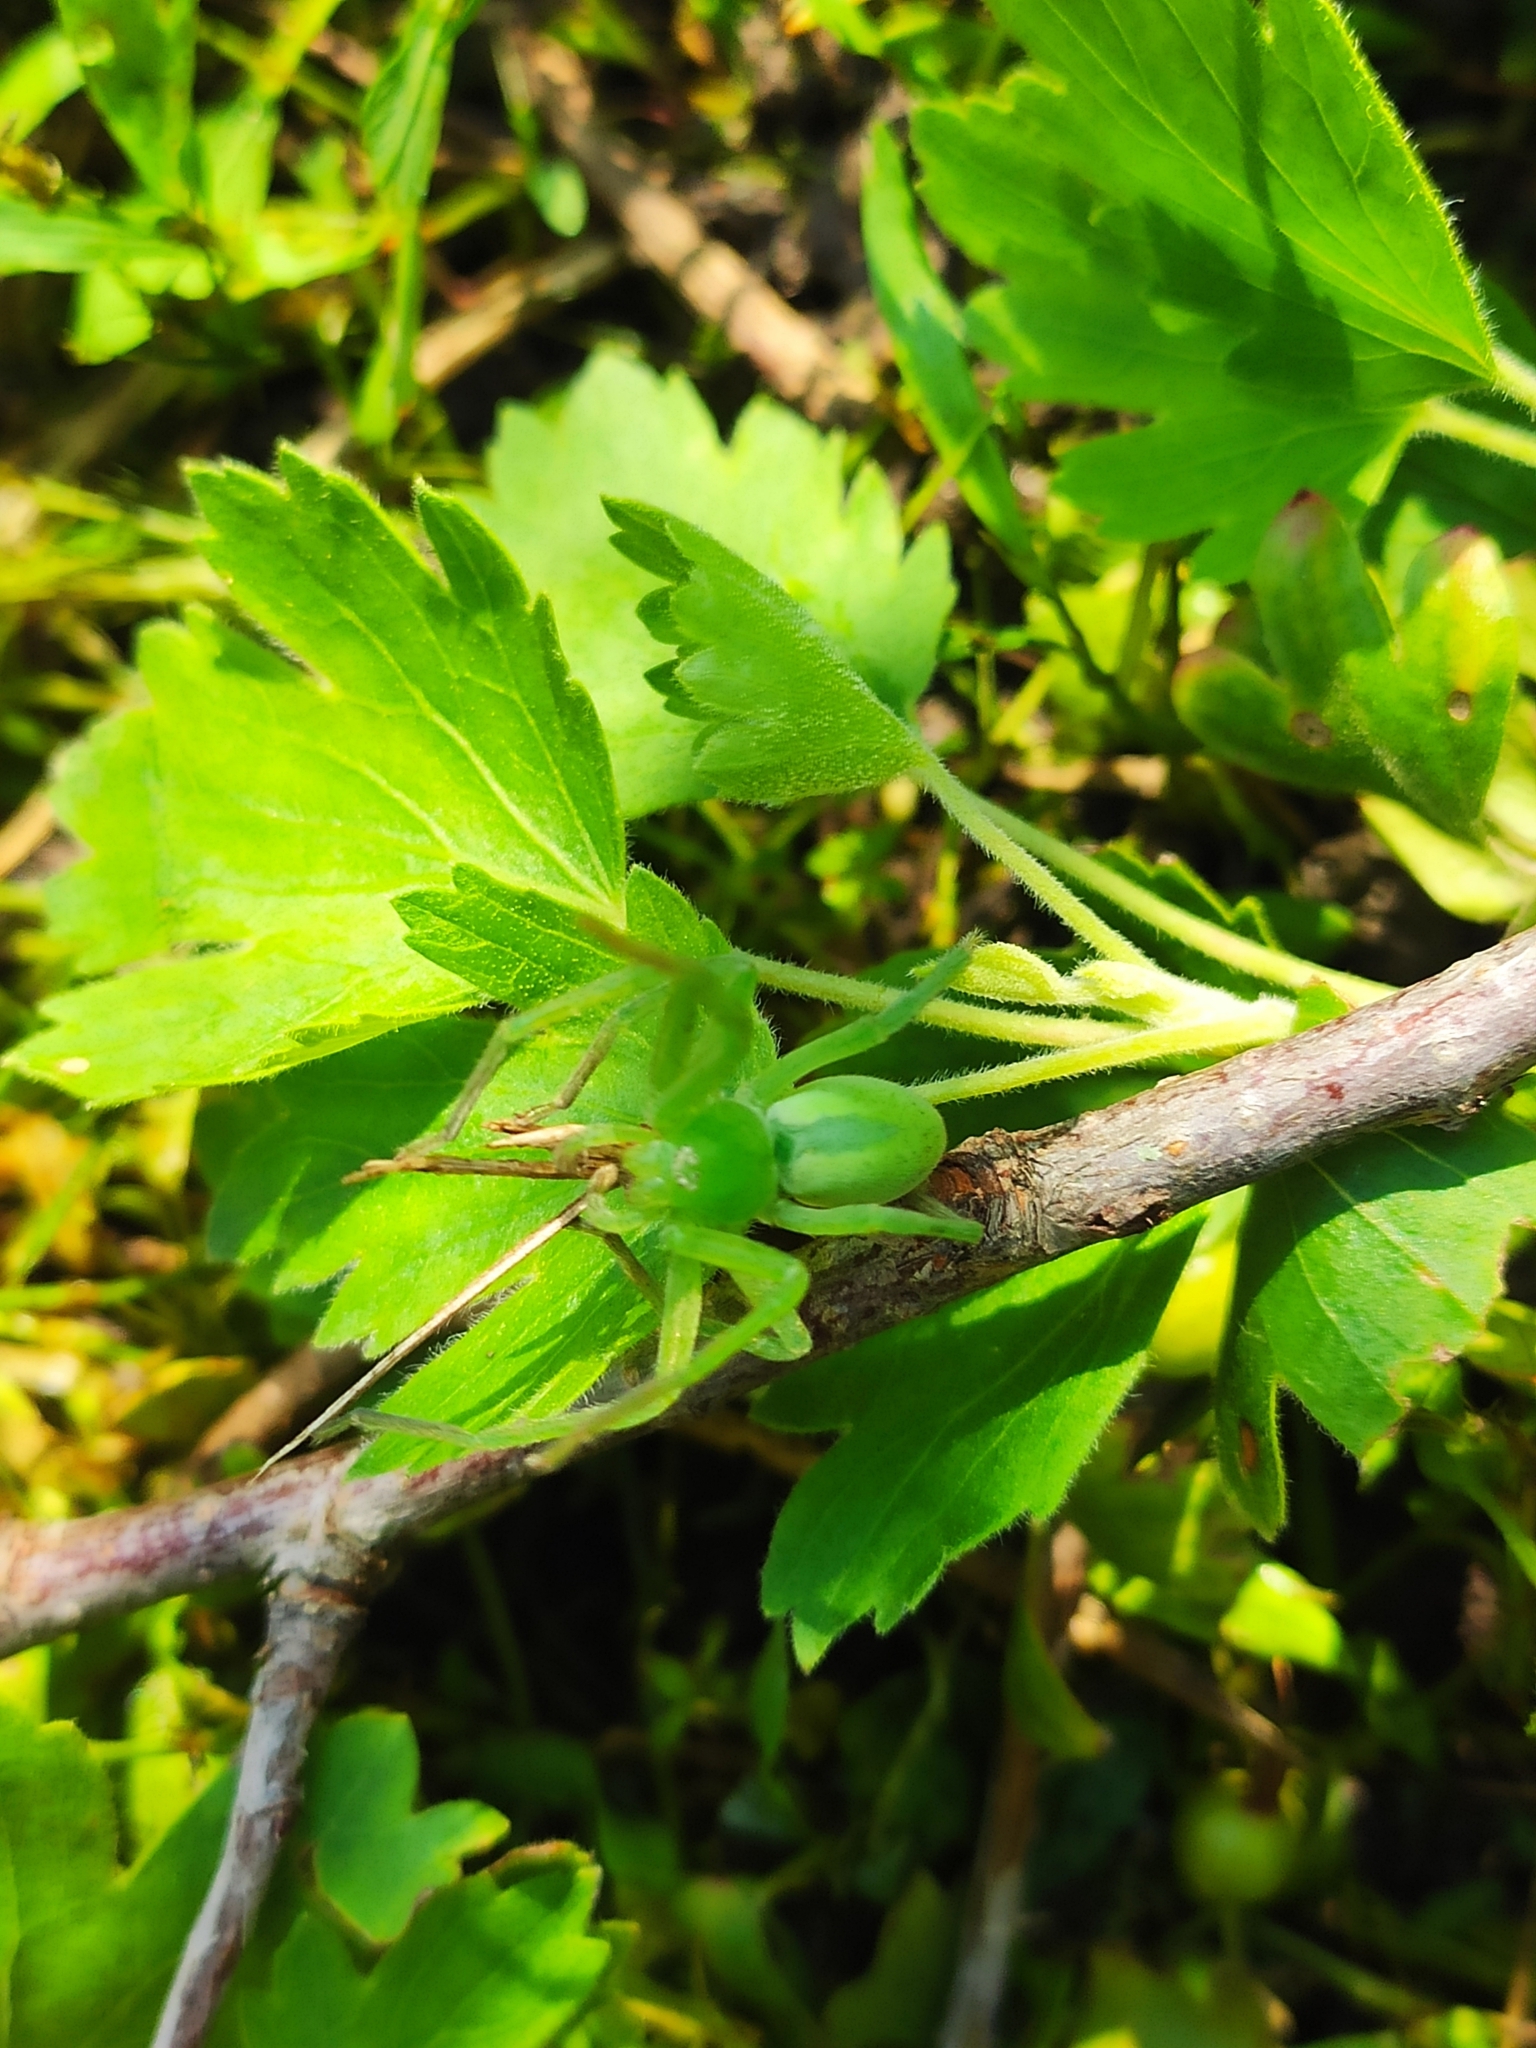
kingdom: Animalia
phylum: Arthropoda
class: Arachnida
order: Araneae
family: Sparassidae
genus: Micrommata
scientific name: Micrommata virescens
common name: Green spider
